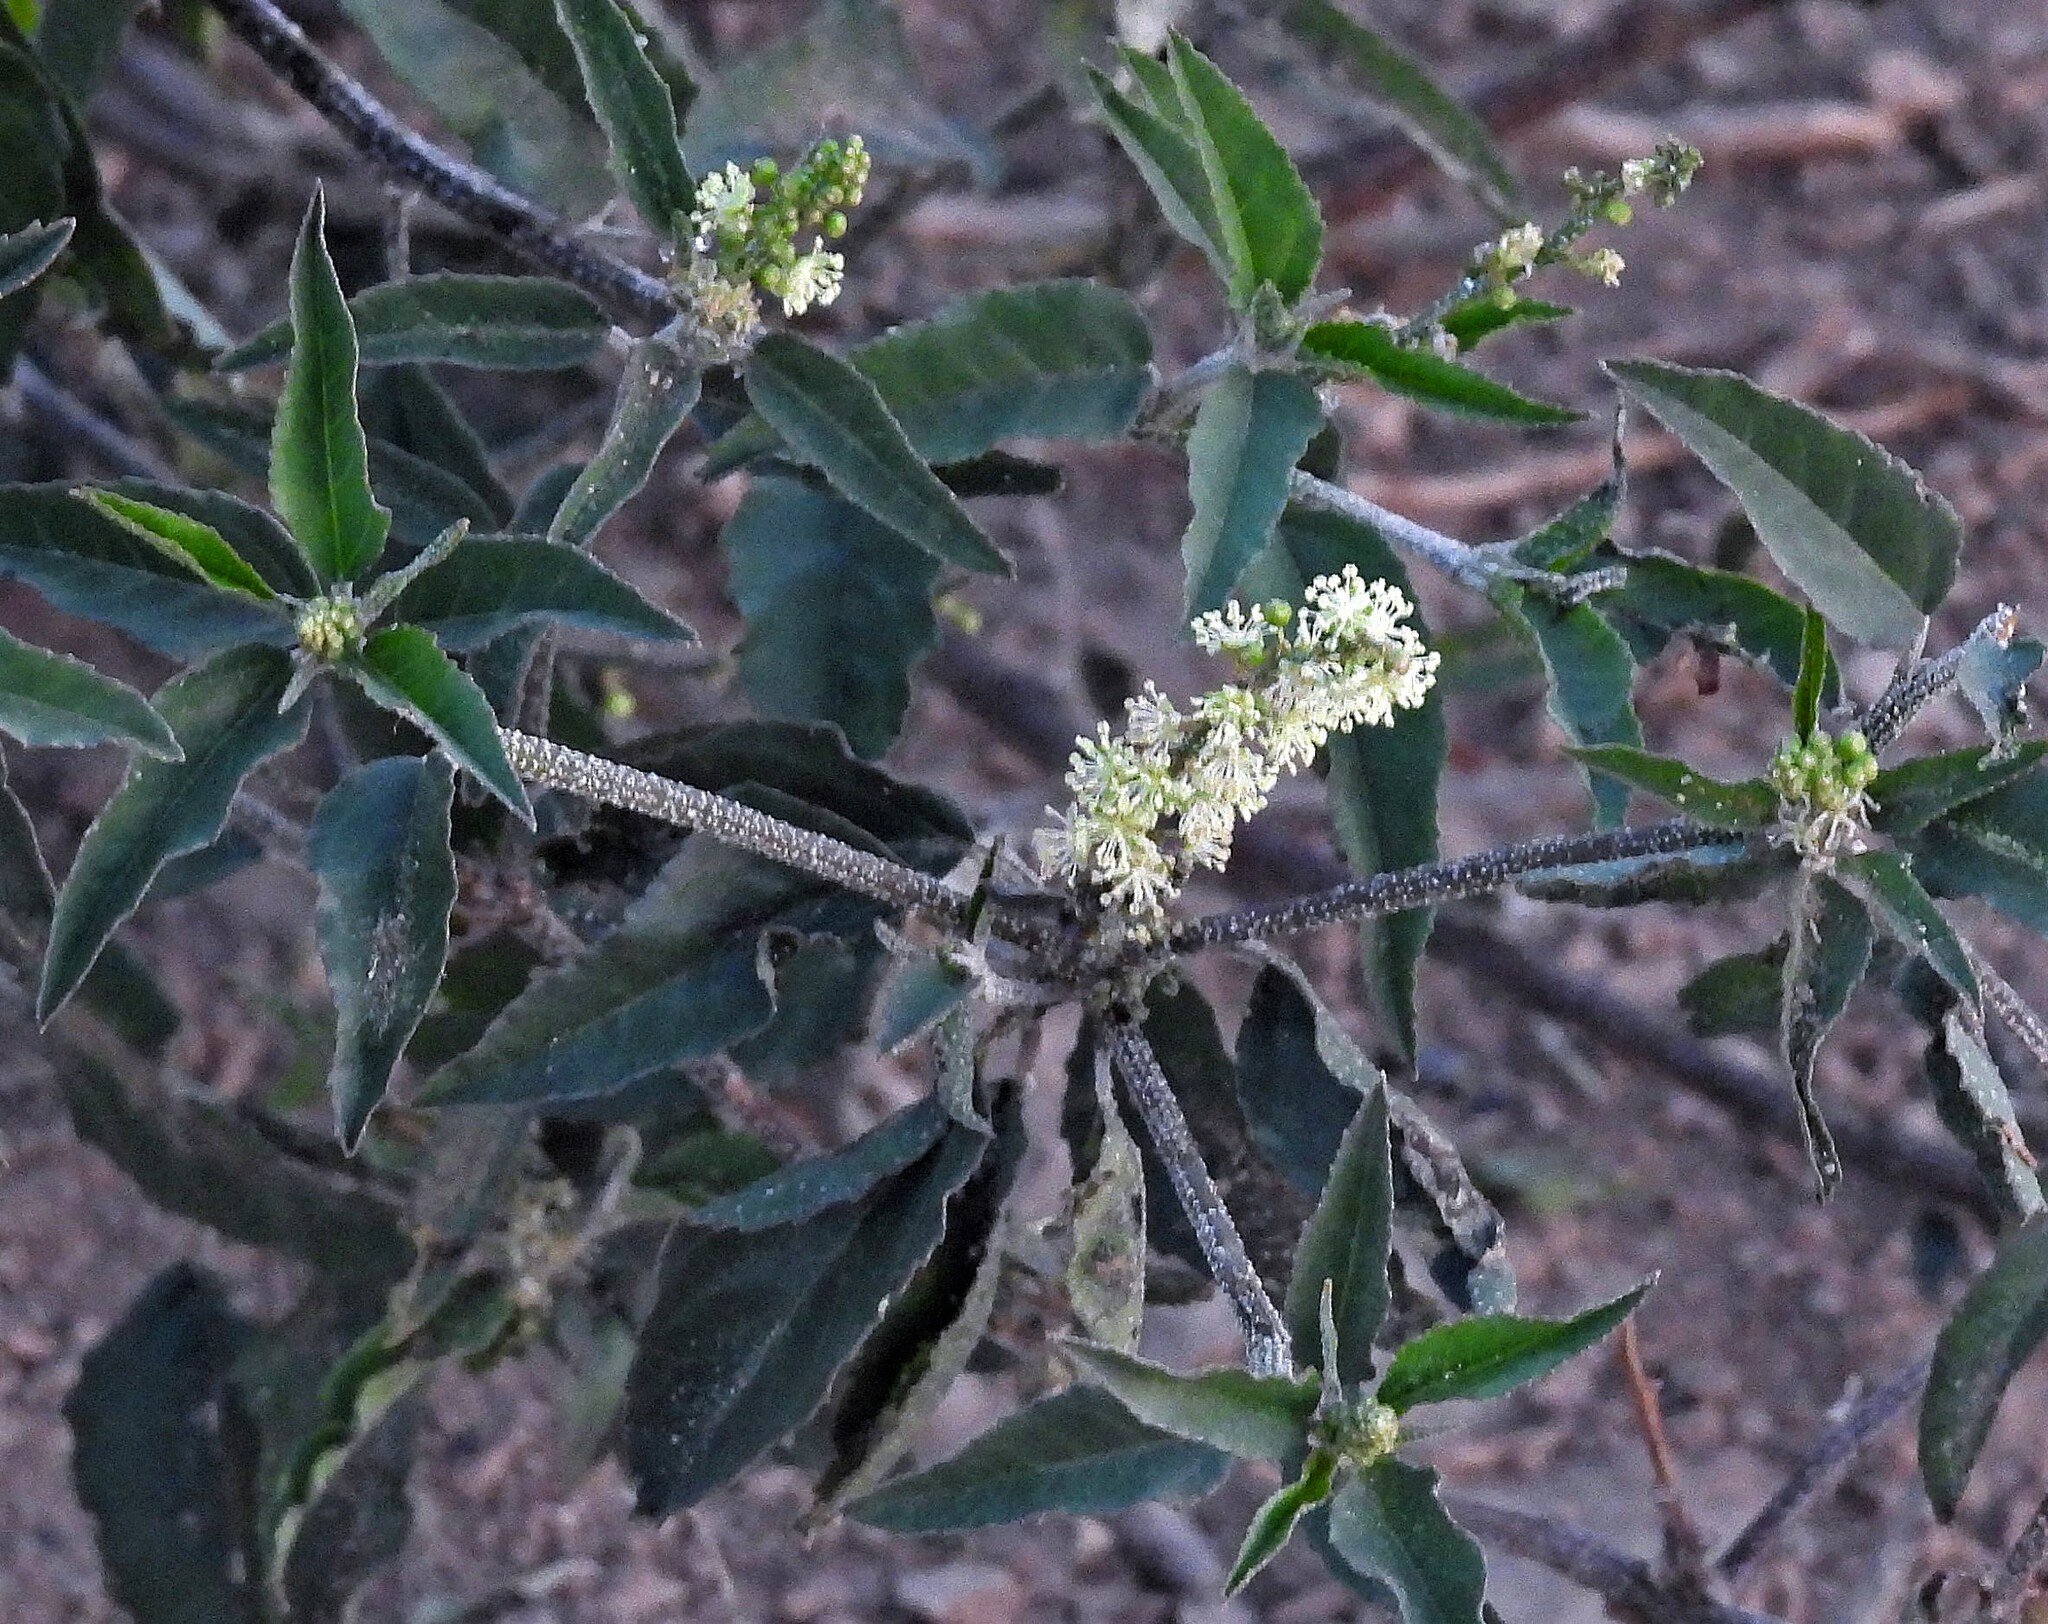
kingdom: Plantae
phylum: Tracheophyta
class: Magnoliopsida
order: Malpighiales
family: Euphorbiaceae
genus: Croton
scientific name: Croton bonplandianus
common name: Bonpland's croton
